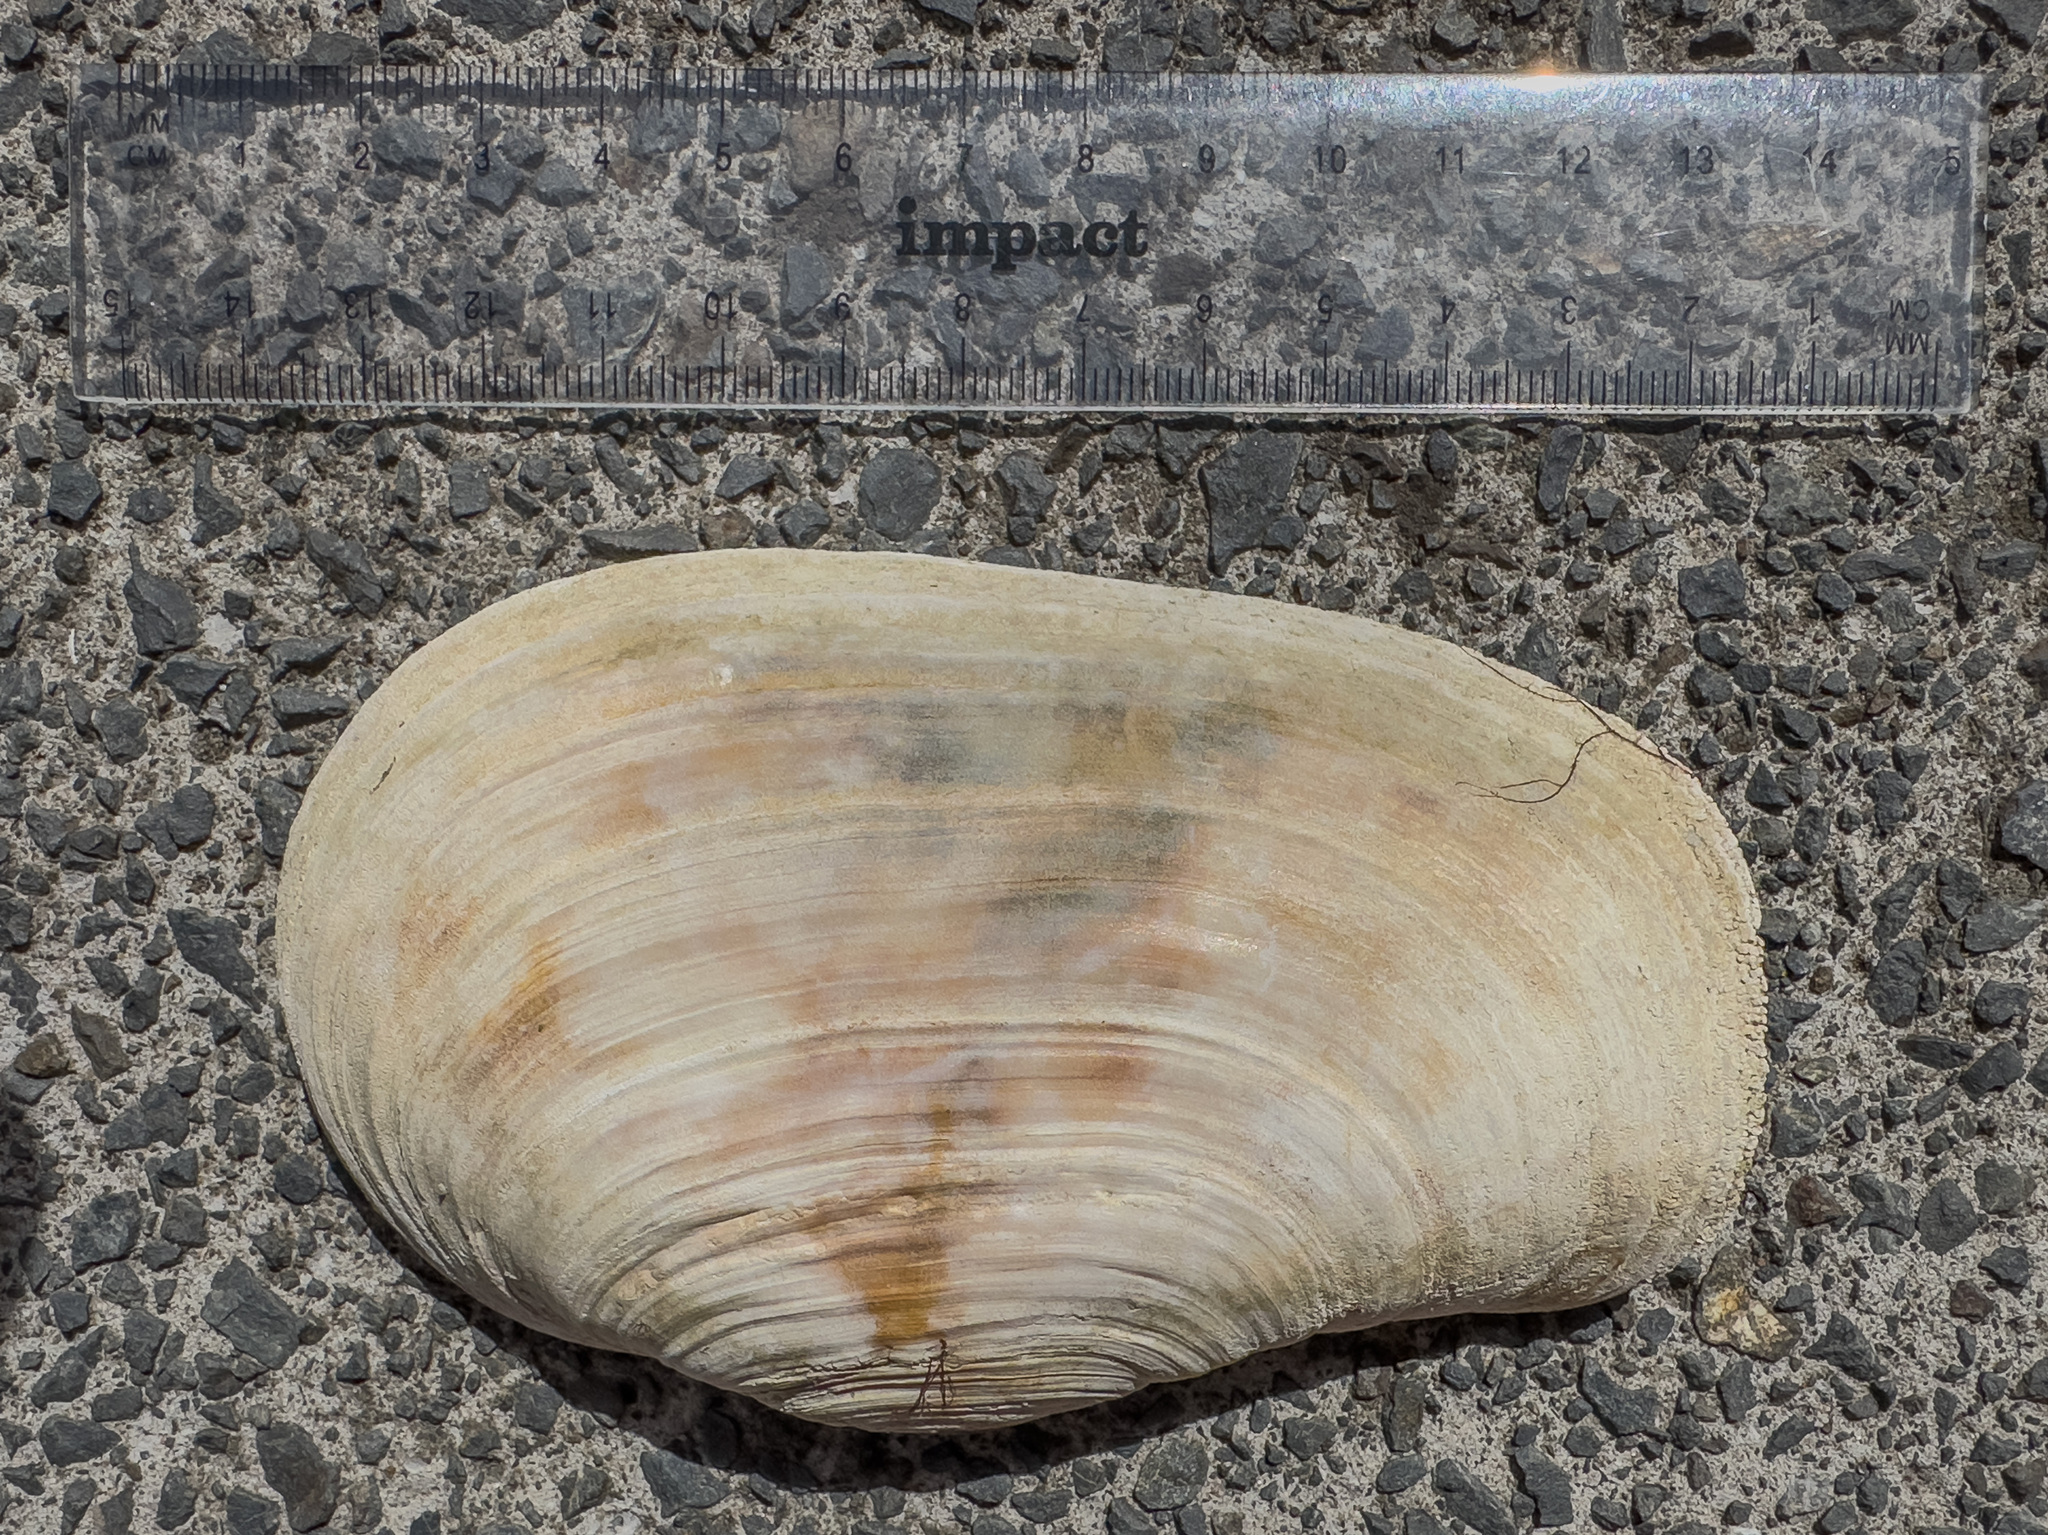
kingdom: Animalia
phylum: Mollusca
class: Bivalvia
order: Adapedonta
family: Hiatellidae
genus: Panopea
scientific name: Panopea zelandica
